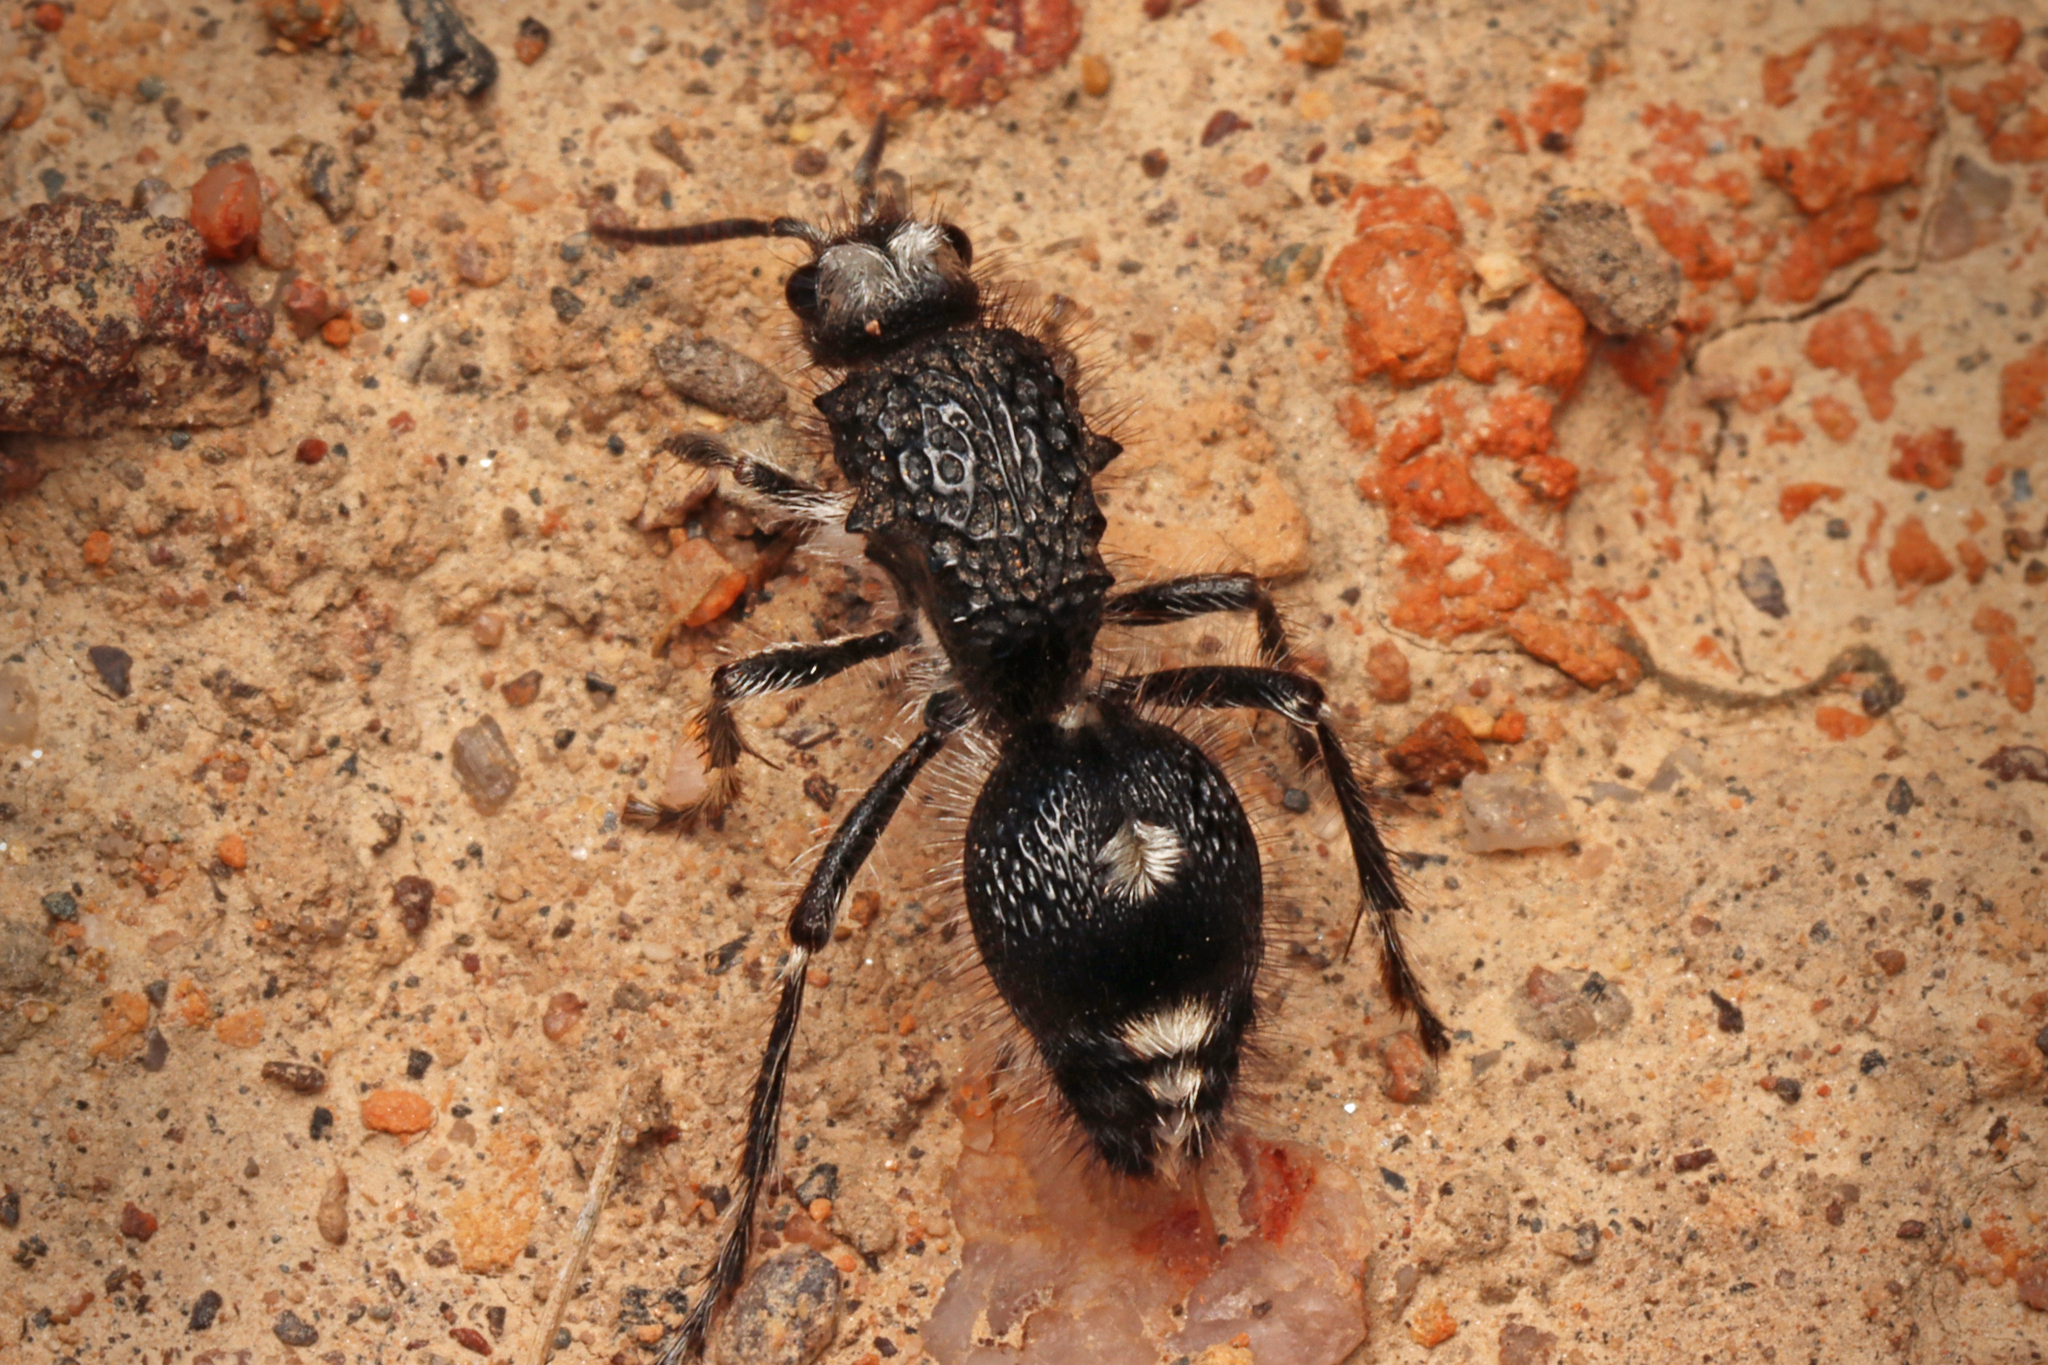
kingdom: Animalia
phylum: Arthropoda
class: Insecta
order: Hymenoptera
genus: Bothriomutilla
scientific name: Bothriomutilla
